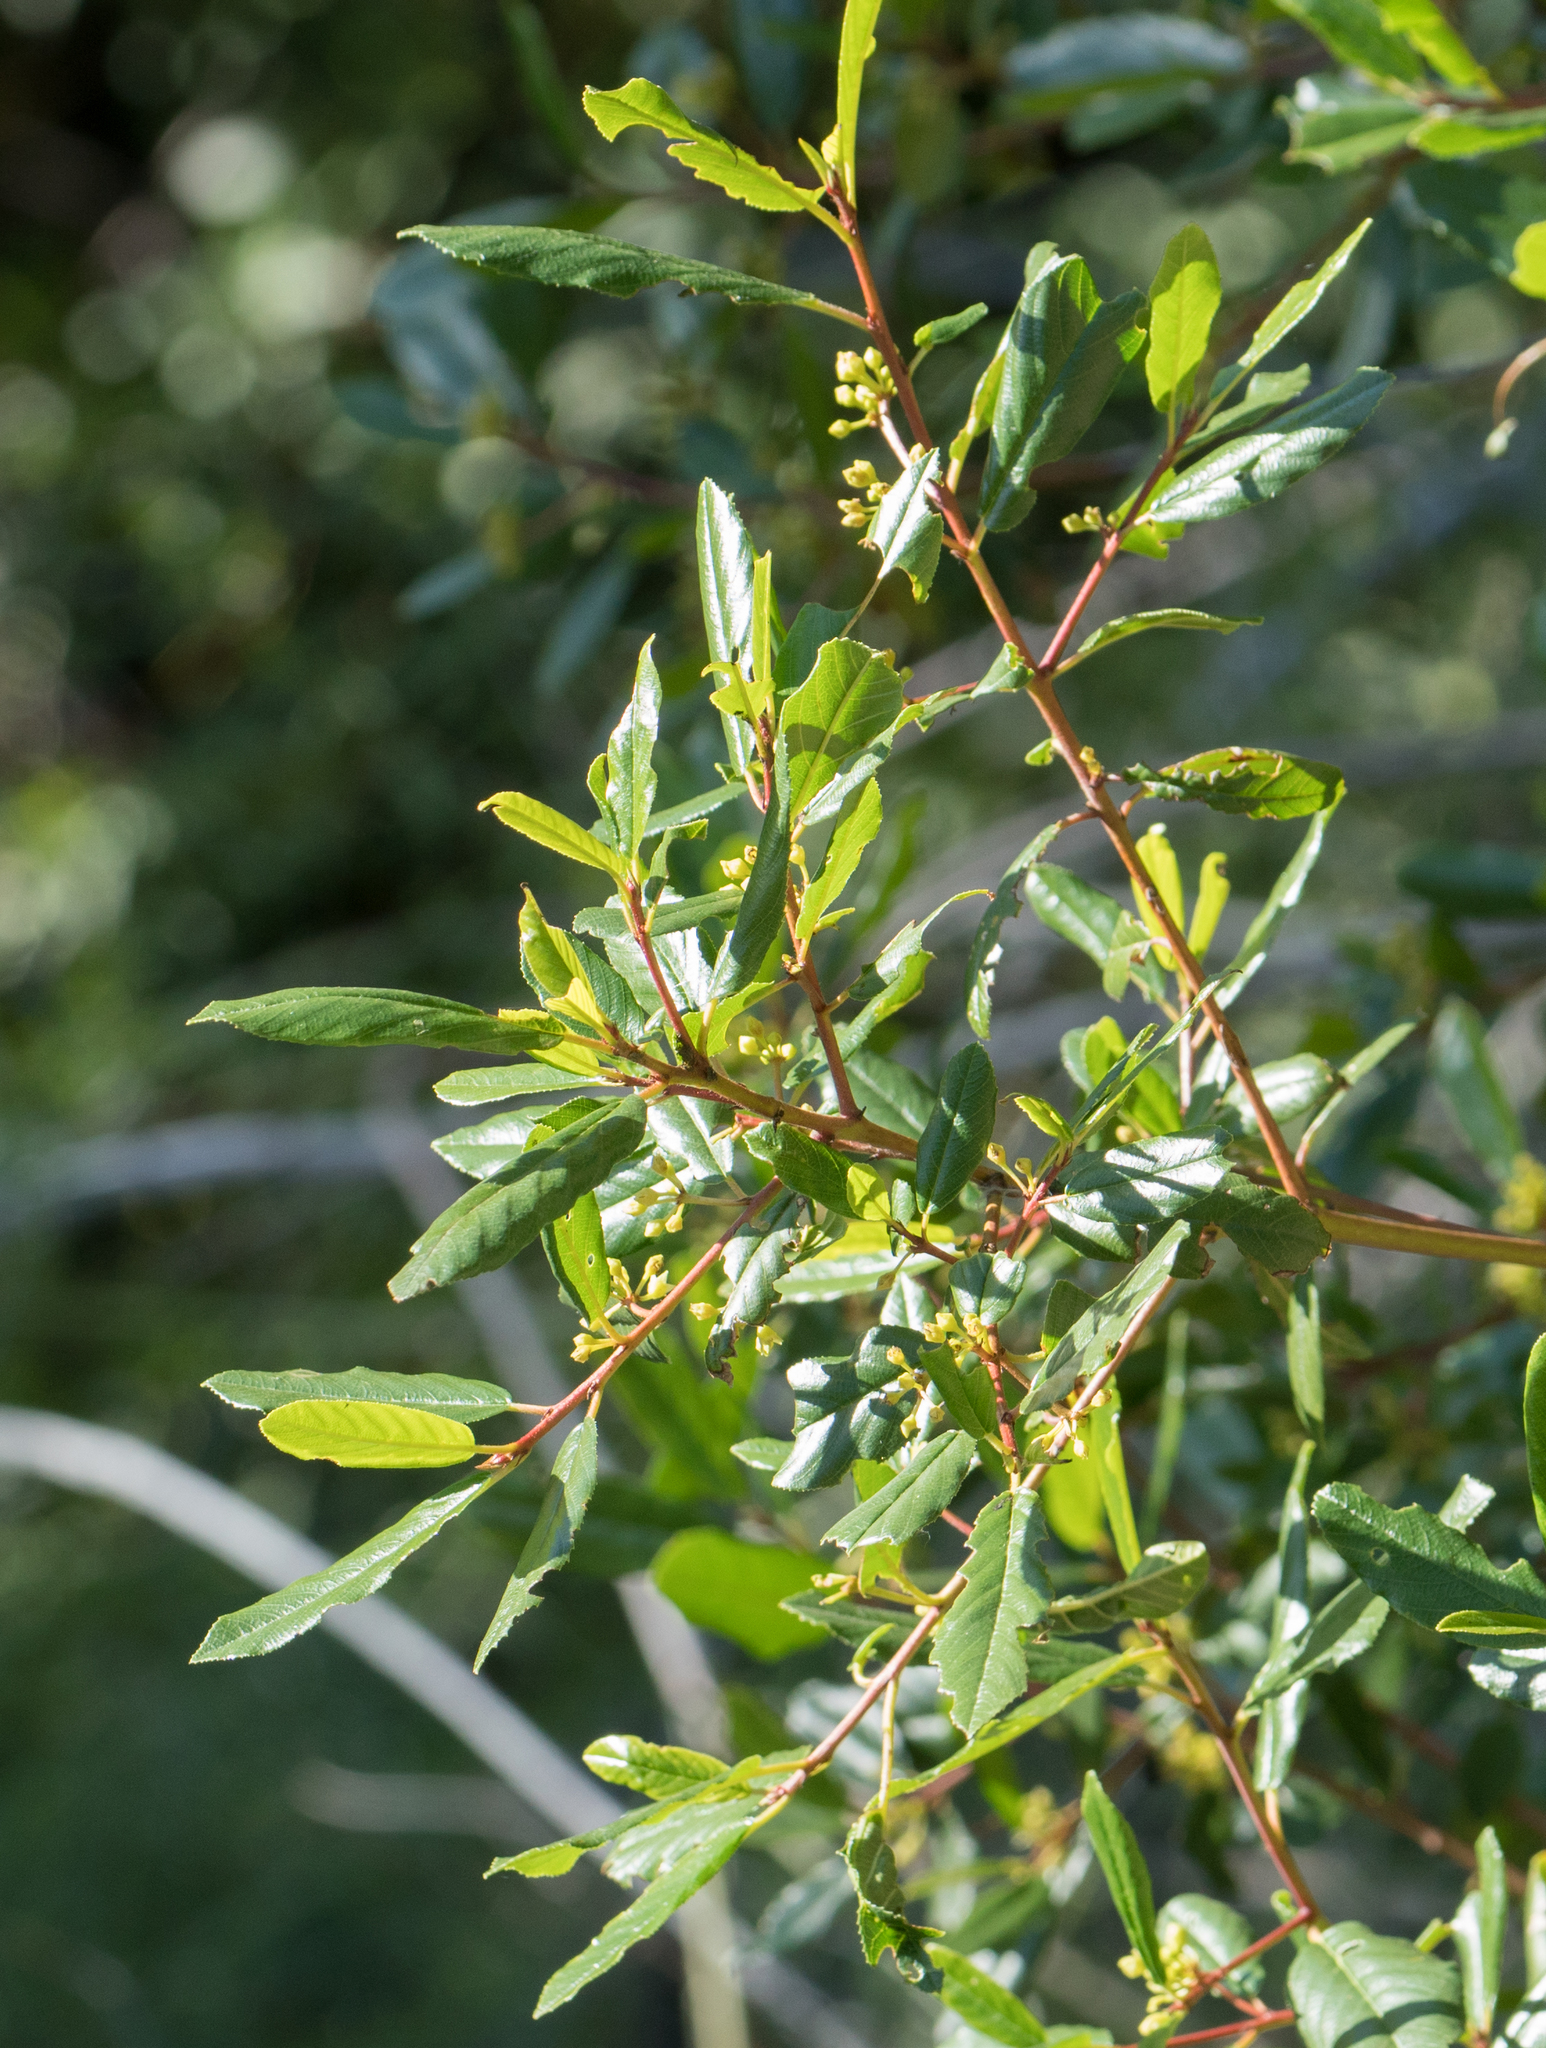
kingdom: Plantae
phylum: Tracheophyta
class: Magnoliopsida
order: Rosales
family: Rhamnaceae
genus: Frangula
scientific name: Frangula californica
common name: California buckthorn
